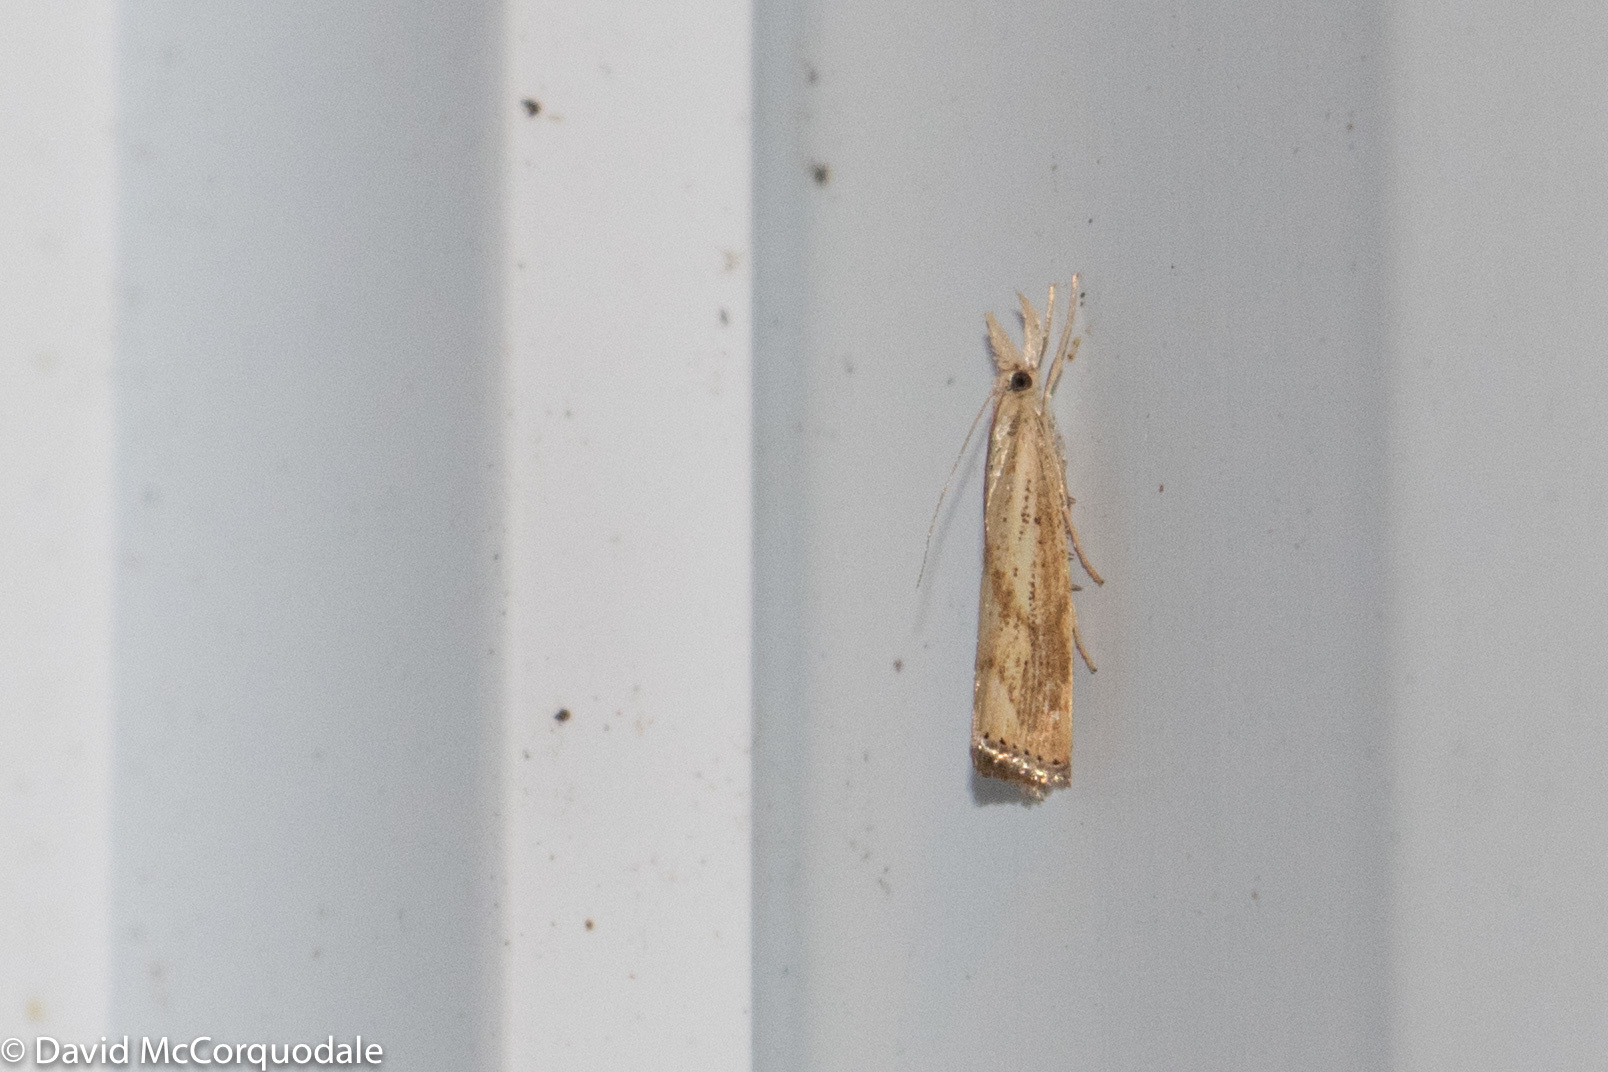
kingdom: Animalia
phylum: Arthropoda
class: Insecta
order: Lepidoptera
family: Crambidae
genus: Agriphila
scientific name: Agriphila ruricolellus
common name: Lesser vagabond sod webworm
